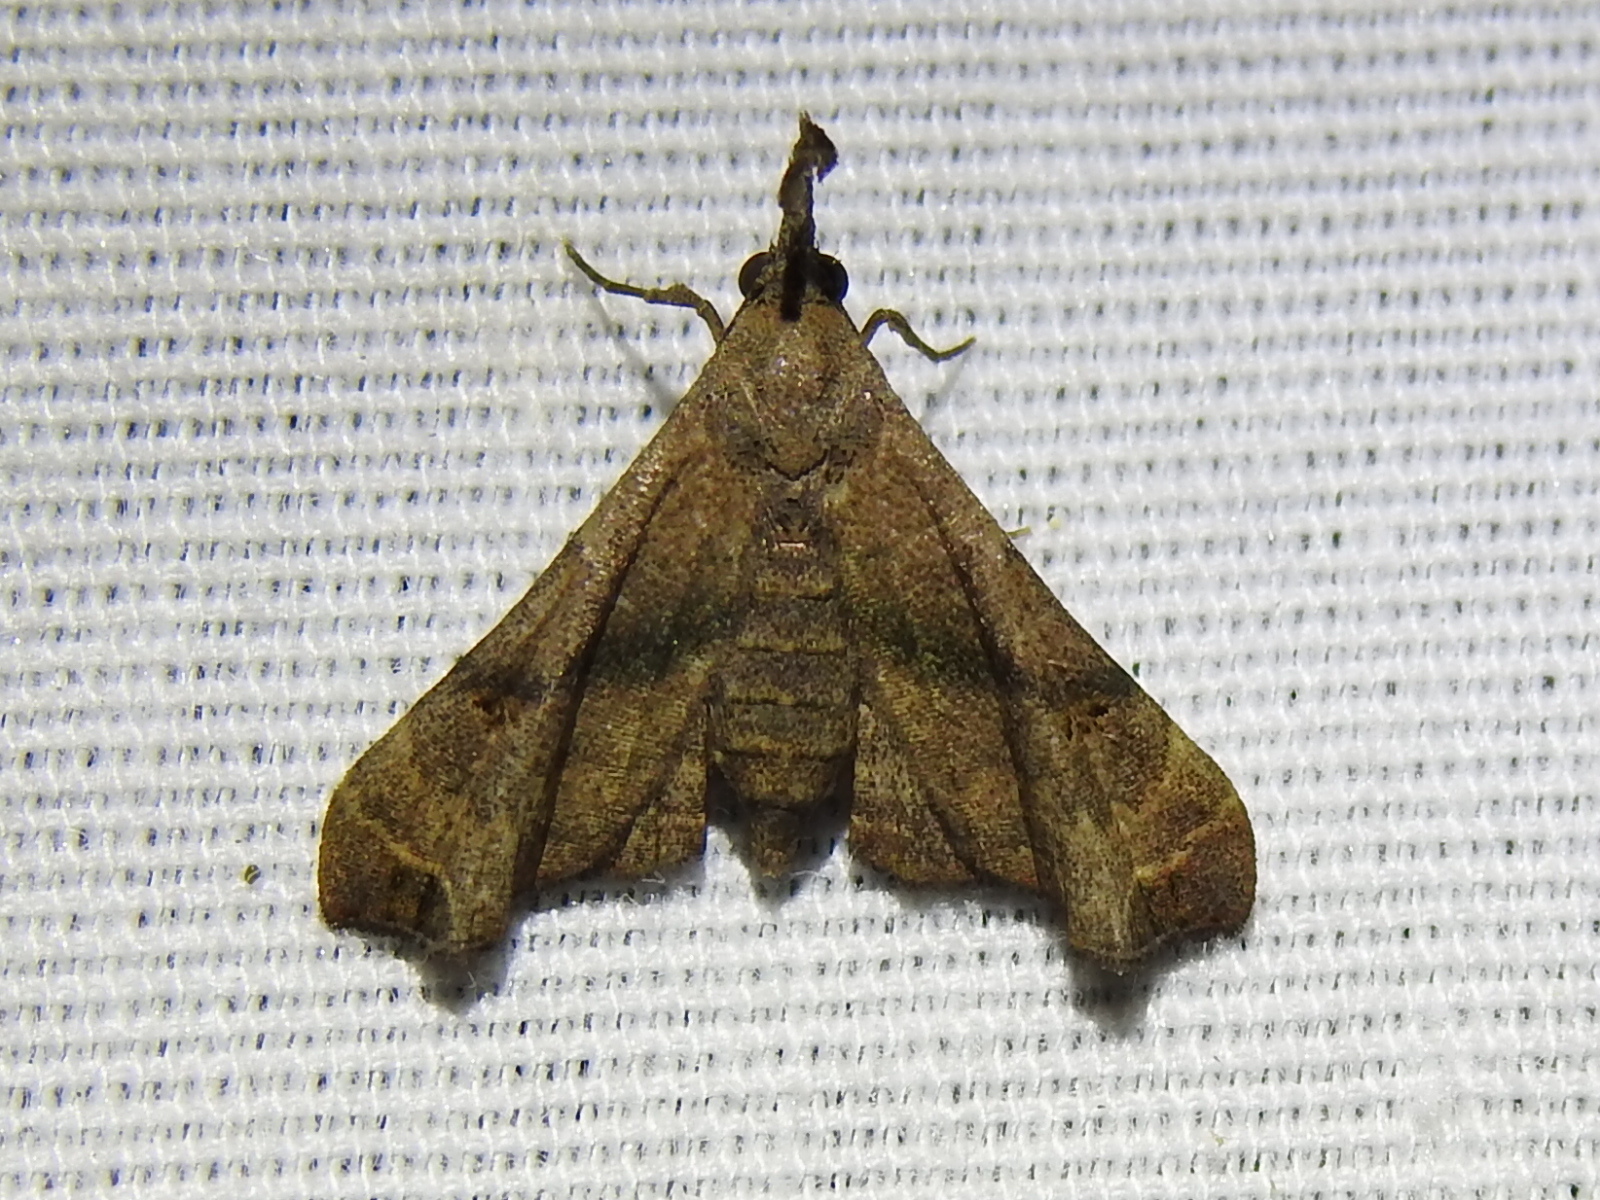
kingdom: Animalia
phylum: Arthropoda
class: Insecta
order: Lepidoptera
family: Erebidae
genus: Palthis
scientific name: Palthis asopialis
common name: Faint-spotted palthis moth
